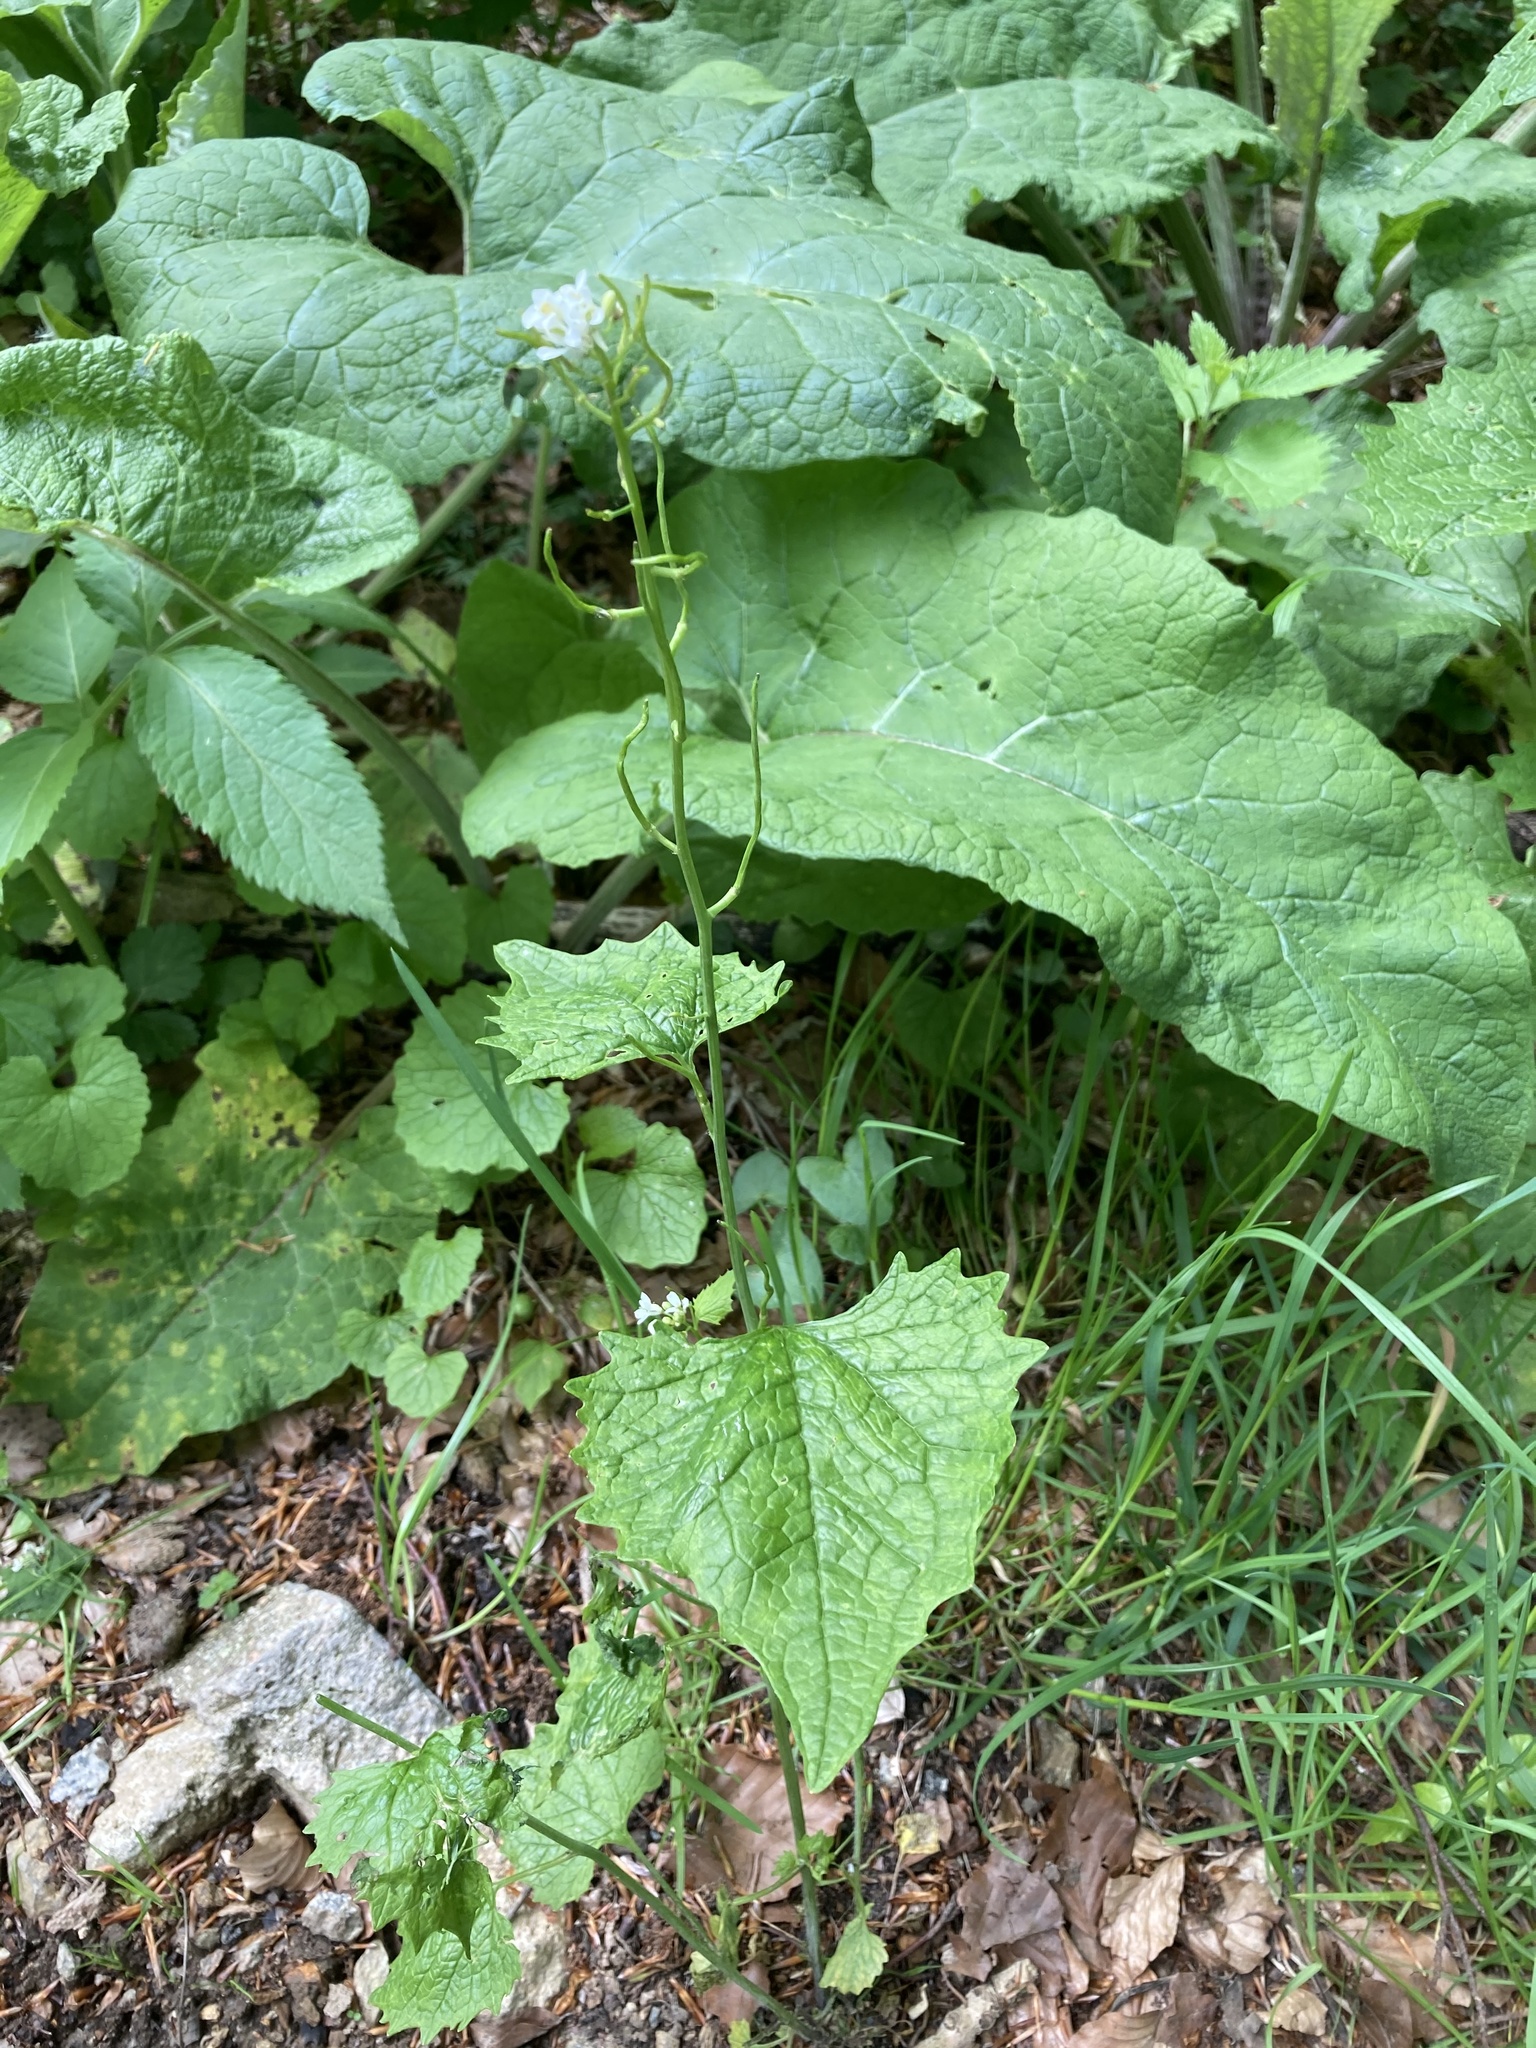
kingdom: Plantae
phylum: Tracheophyta
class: Magnoliopsida
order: Brassicales
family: Brassicaceae
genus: Alliaria
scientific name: Alliaria petiolata
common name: Garlic mustard
